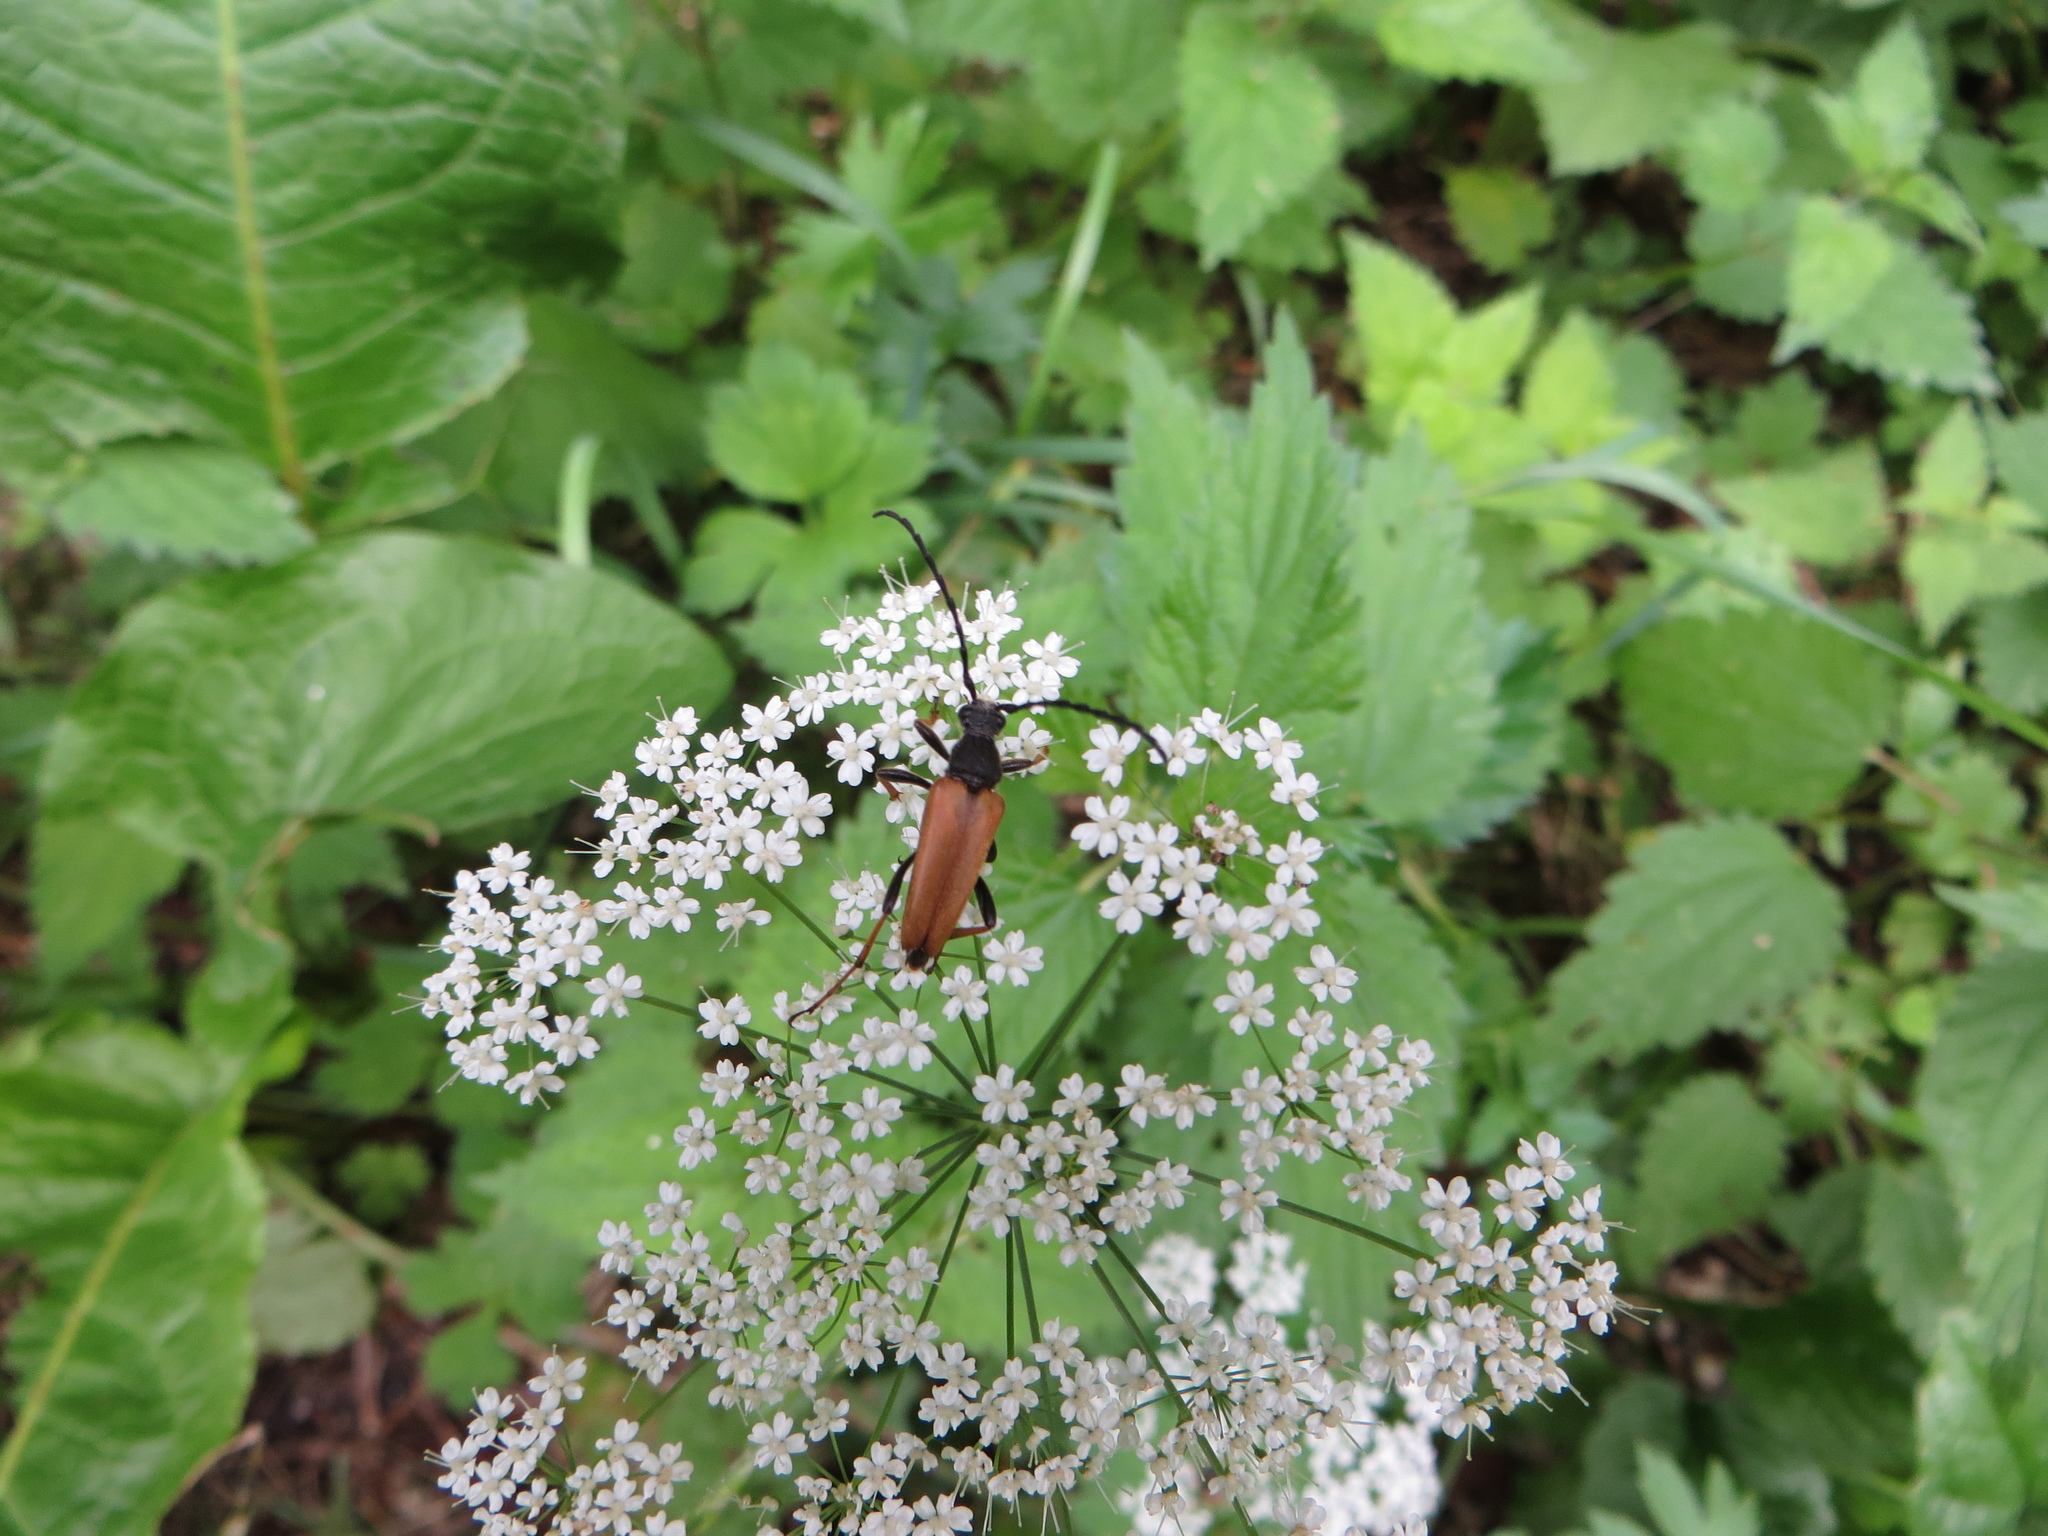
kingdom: Animalia
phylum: Arthropoda
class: Insecta
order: Coleoptera
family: Cerambycidae
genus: Stictoleptura
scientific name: Stictoleptura rubra
